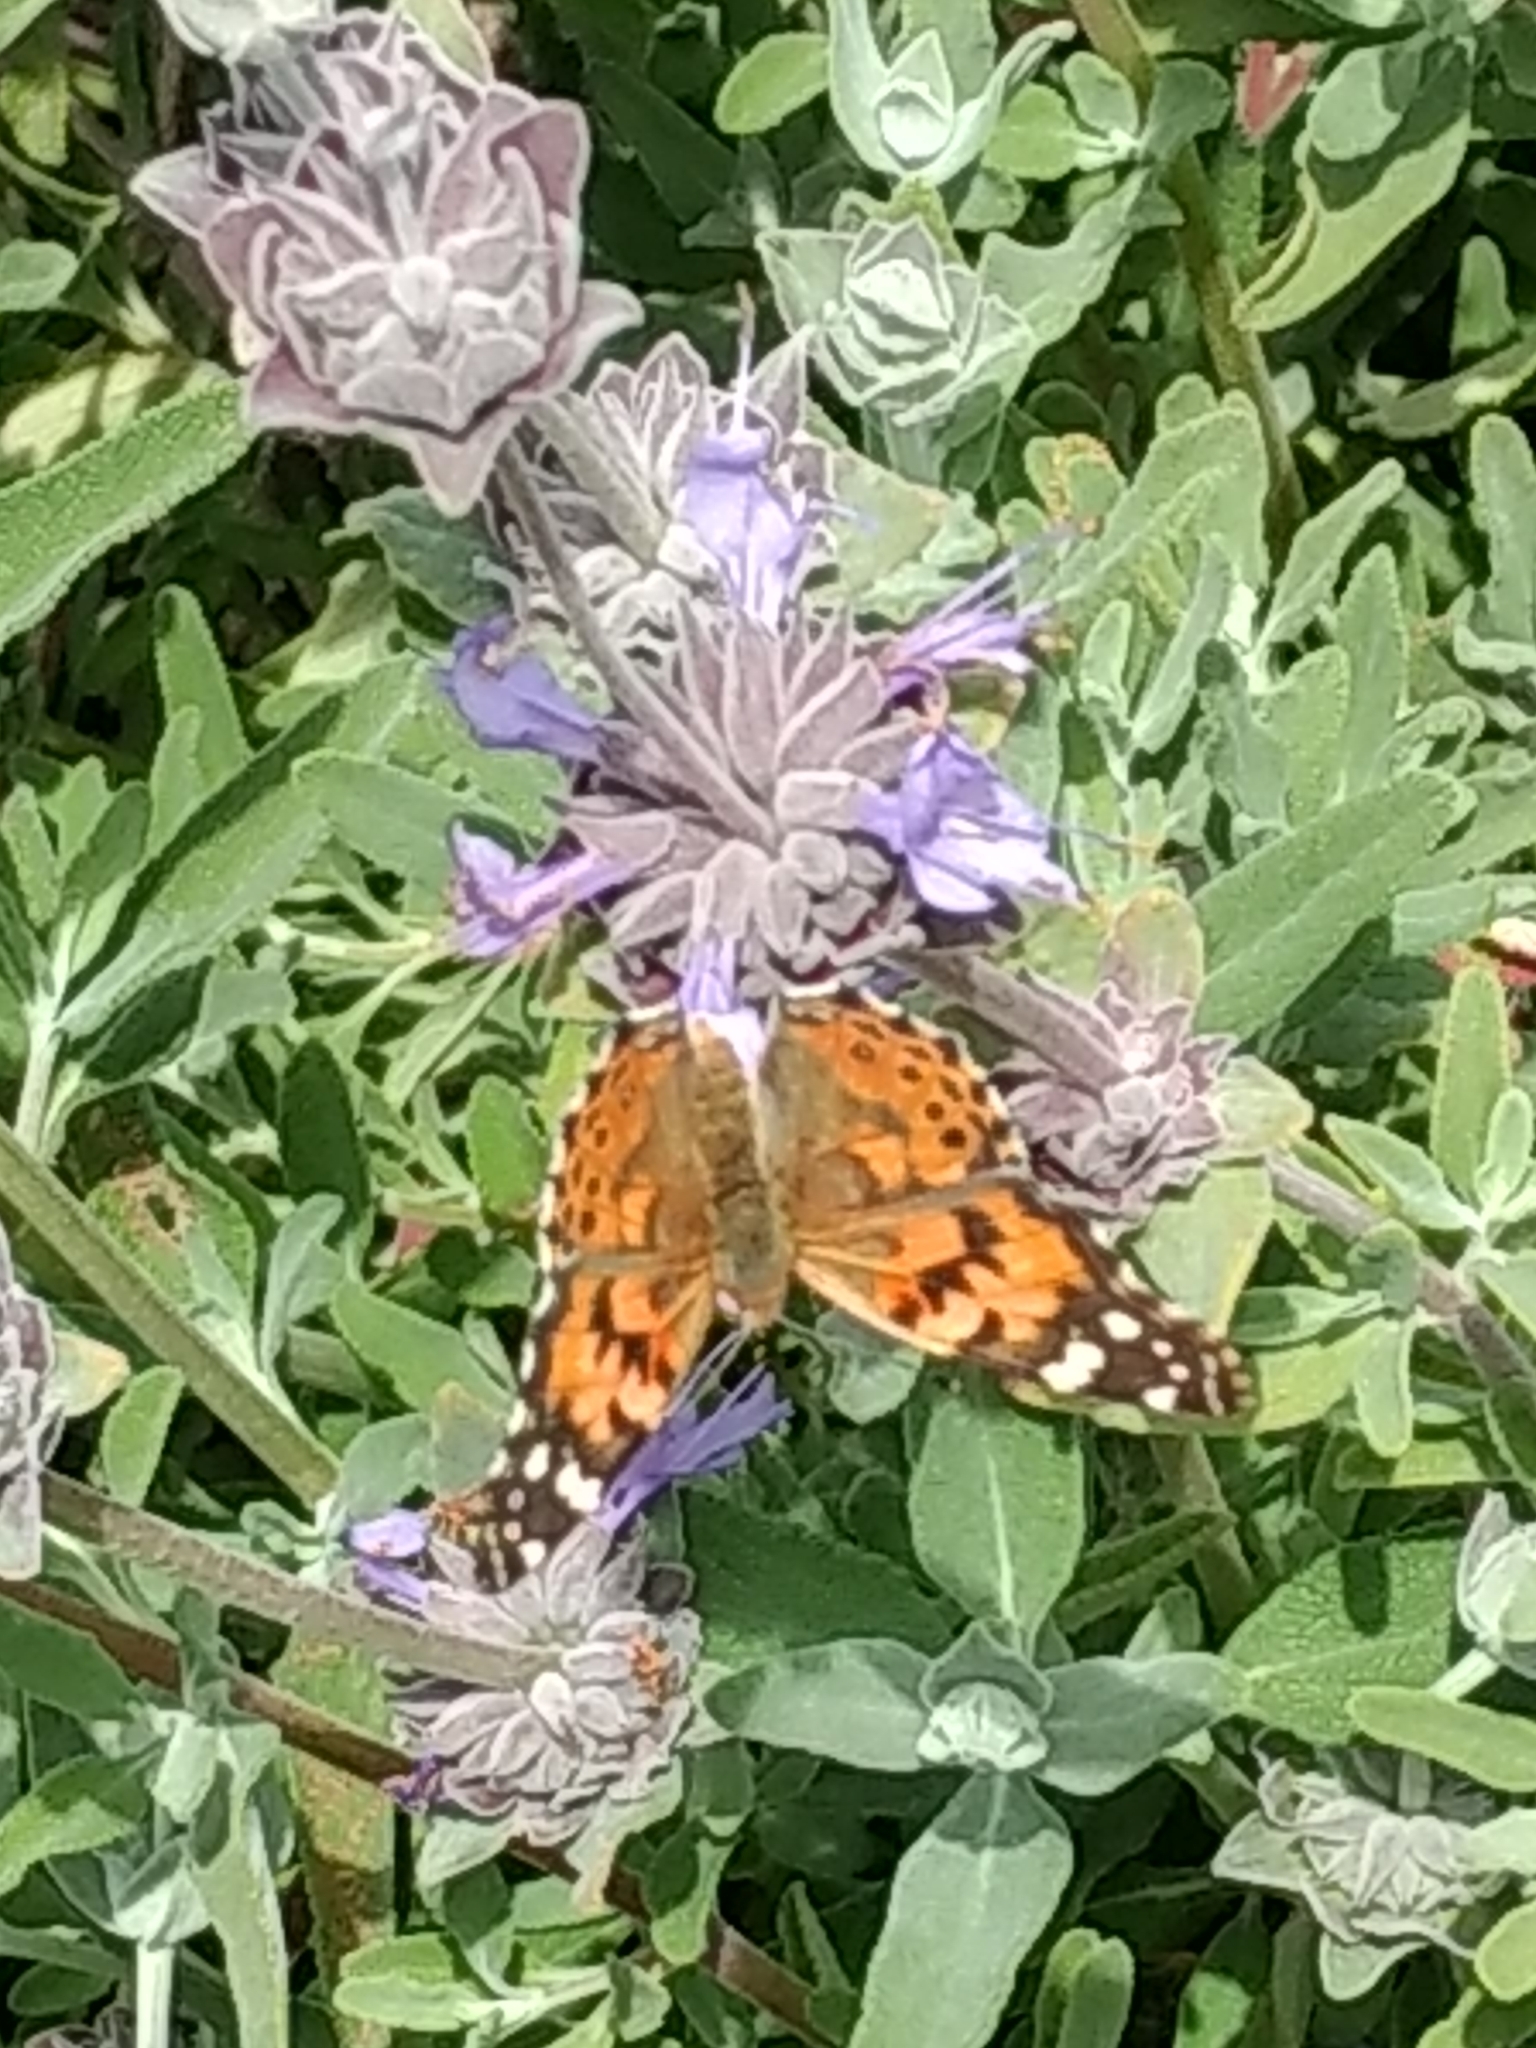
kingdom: Animalia
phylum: Arthropoda
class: Insecta
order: Lepidoptera
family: Nymphalidae
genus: Vanessa
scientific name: Vanessa cardui
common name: Painted lady
